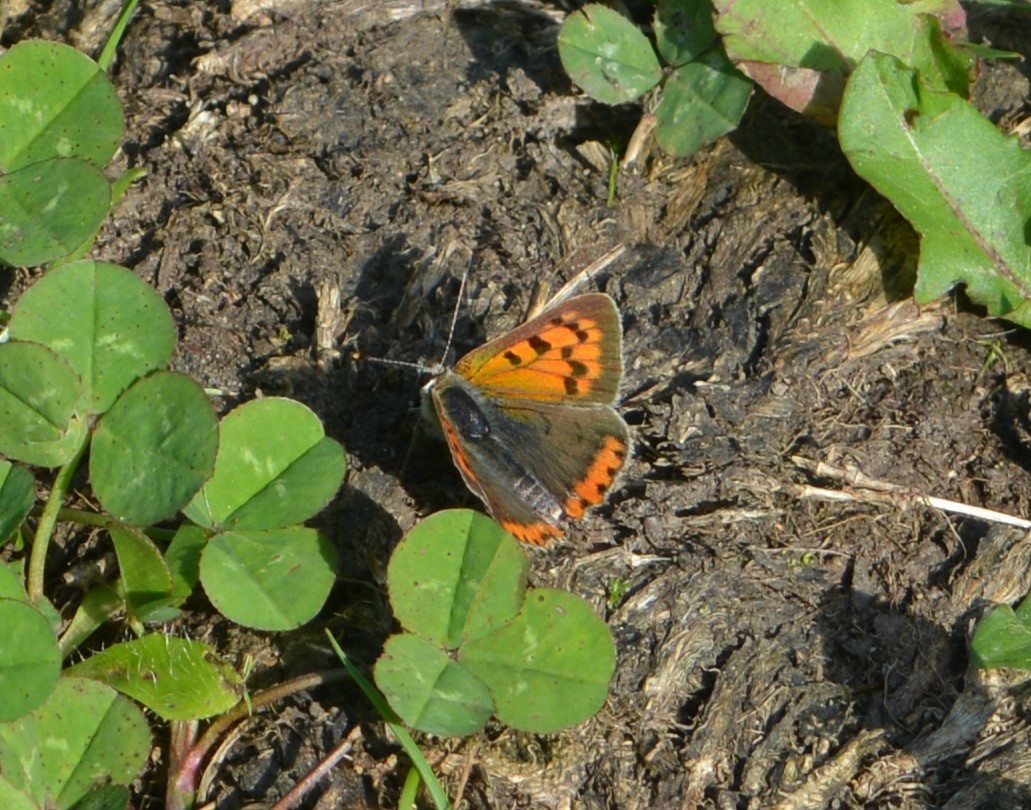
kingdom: Animalia
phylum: Arthropoda
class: Insecta
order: Lepidoptera
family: Lycaenidae
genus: Lycaena
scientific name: Lycaena phlaeas
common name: Small copper
